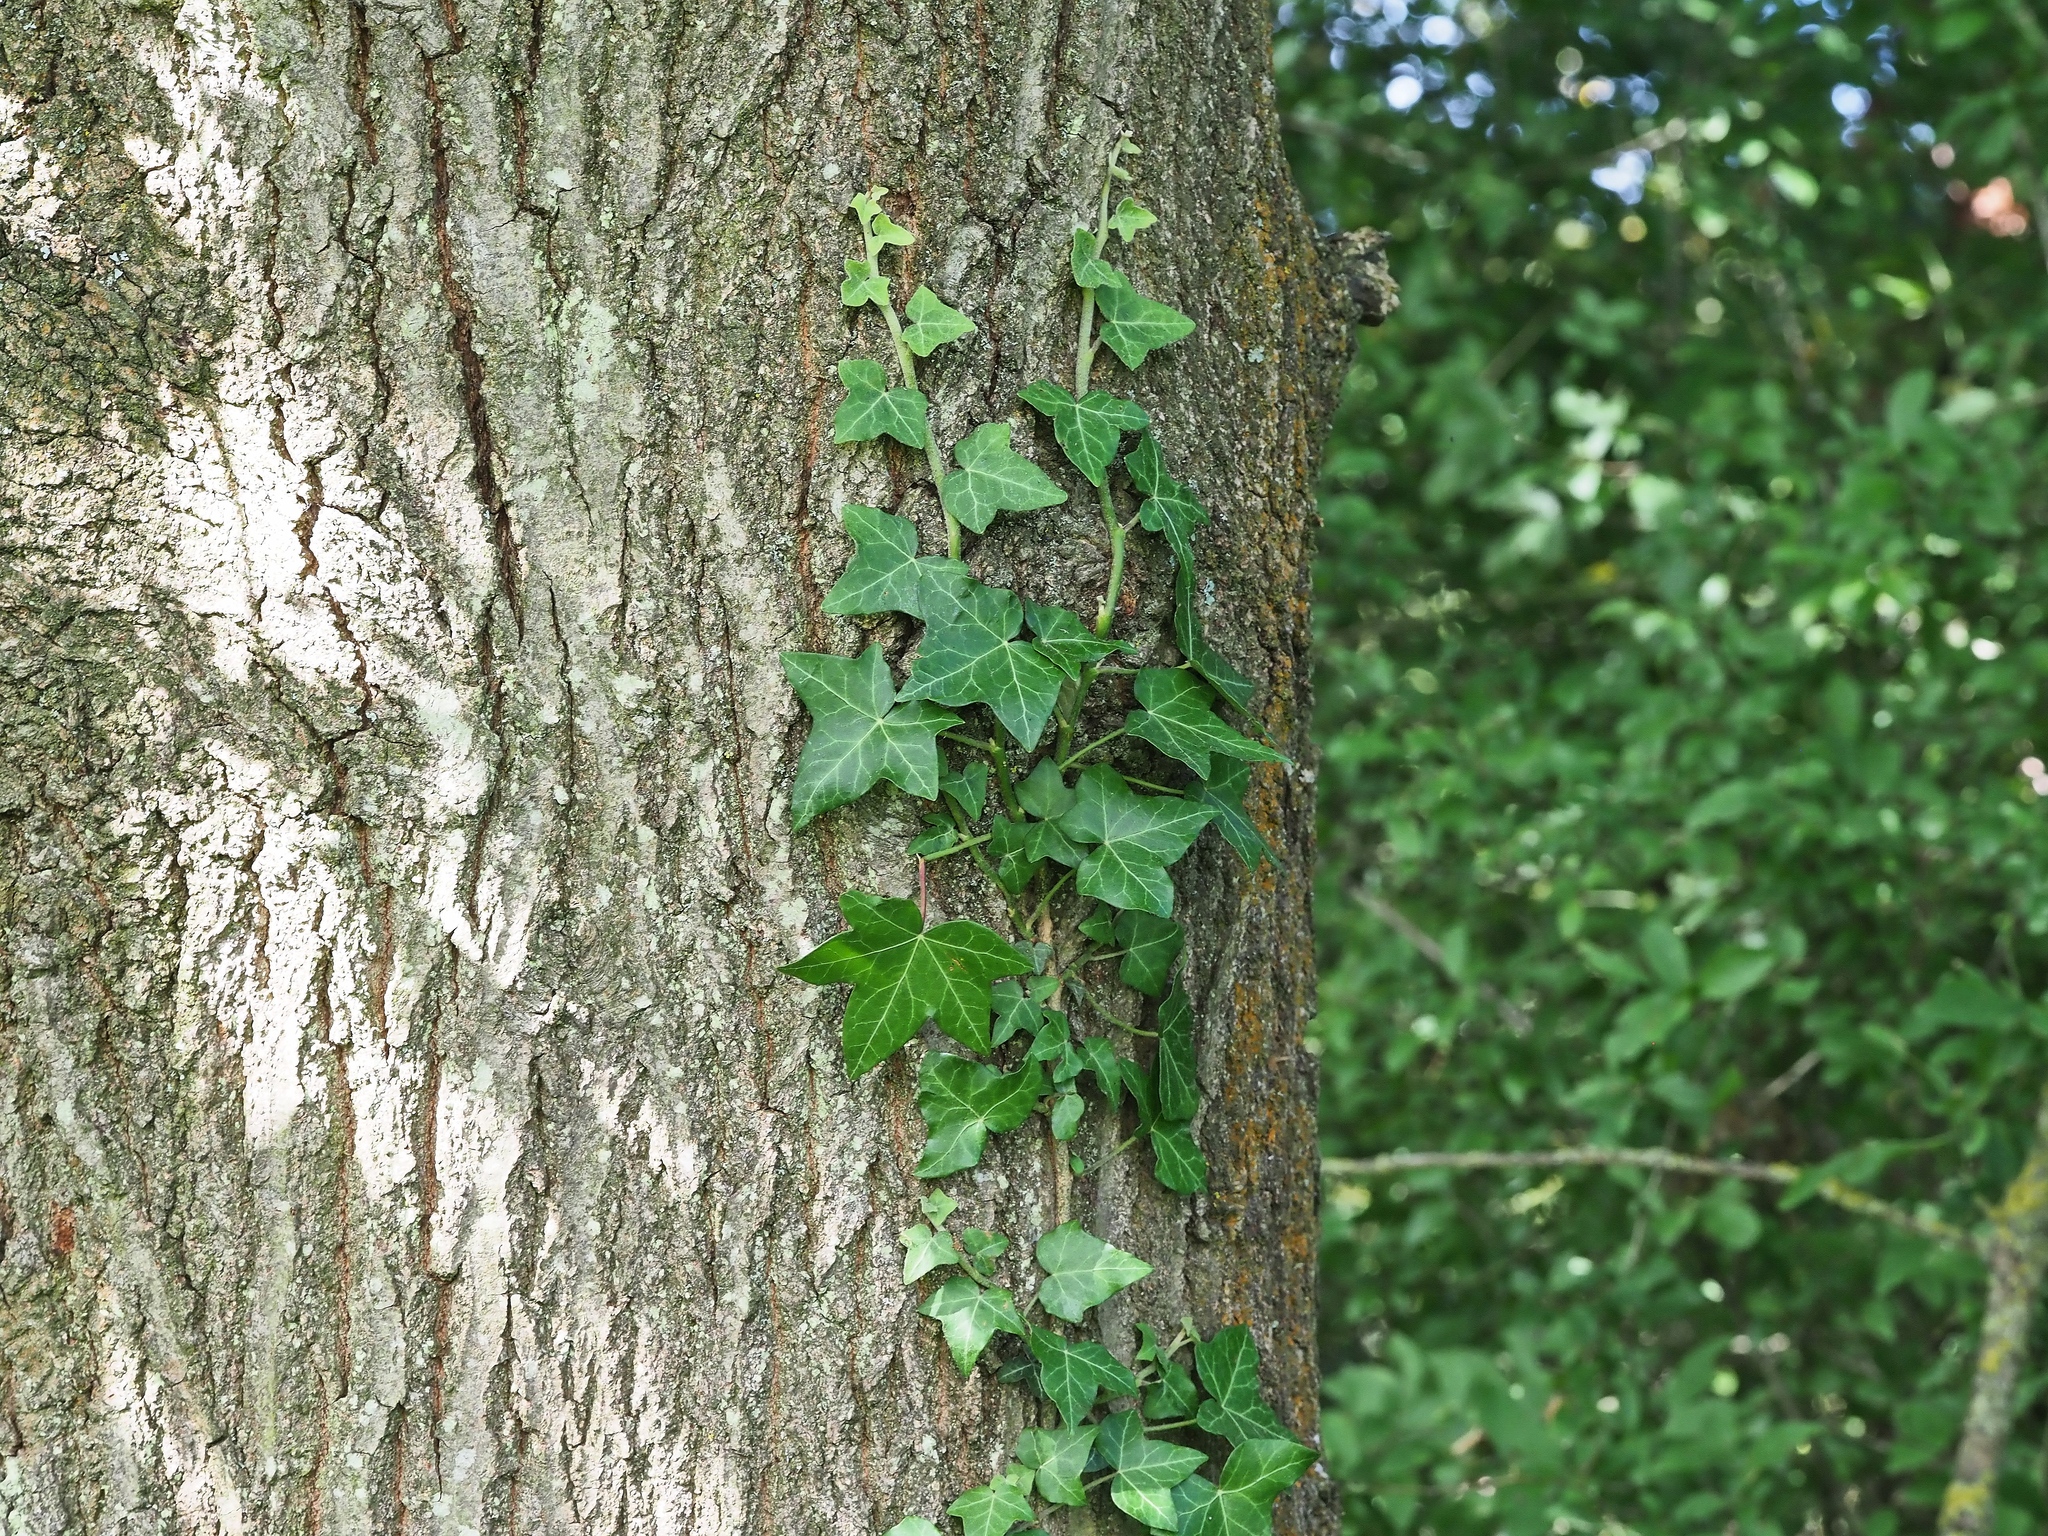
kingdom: Plantae
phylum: Tracheophyta
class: Magnoliopsida
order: Apiales
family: Araliaceae
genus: Hedera
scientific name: Hedera helix
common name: Ivy
